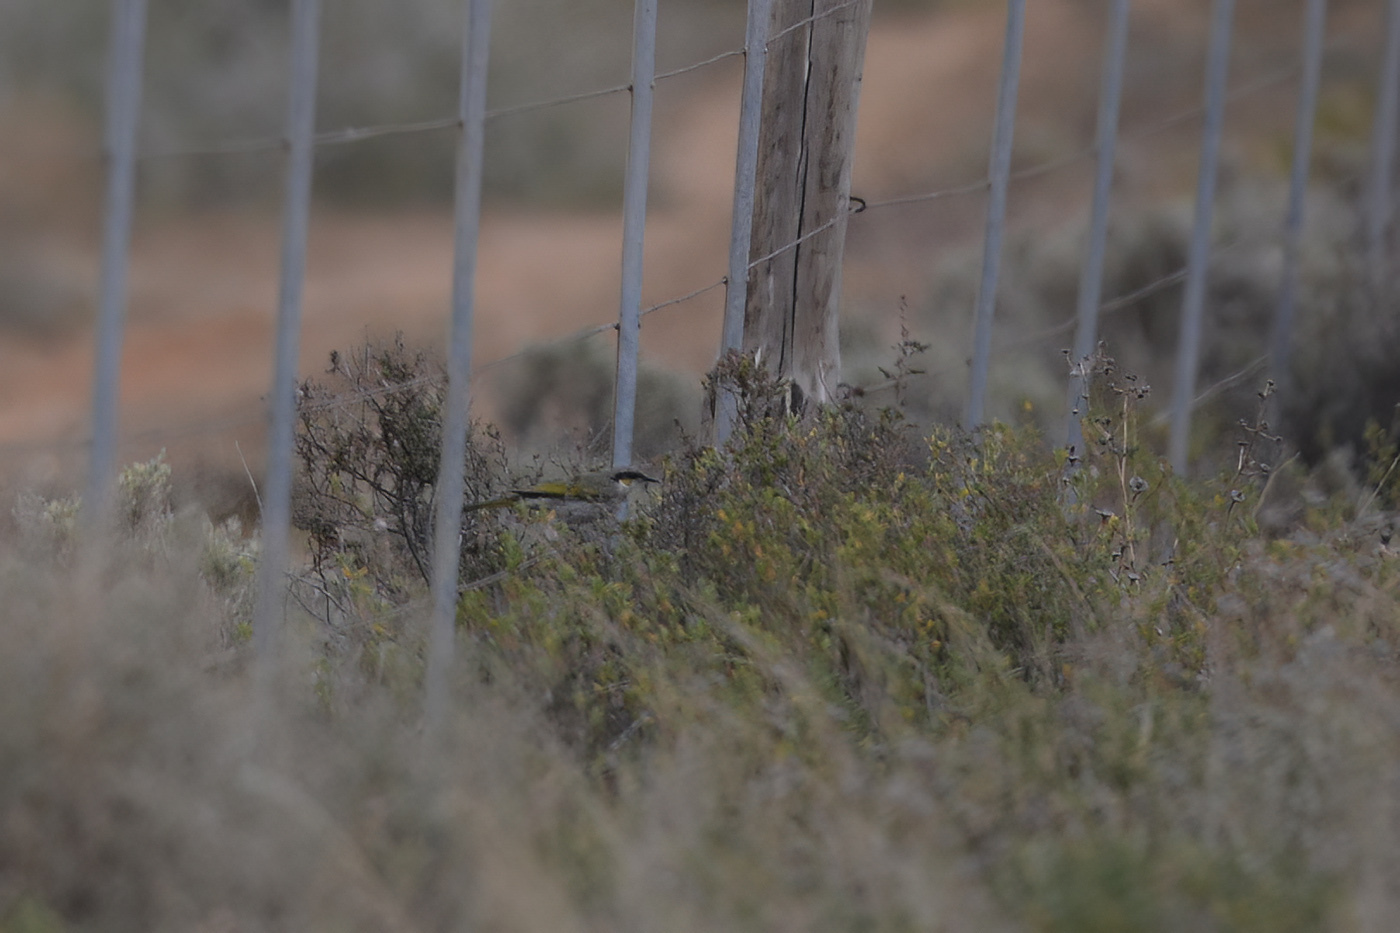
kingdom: Animalia
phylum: Chordata
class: Aves
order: Passeriformes
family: Meliphagidae
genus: Gavicalis
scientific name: Gavicalis virescens
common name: Singing honeyeater
